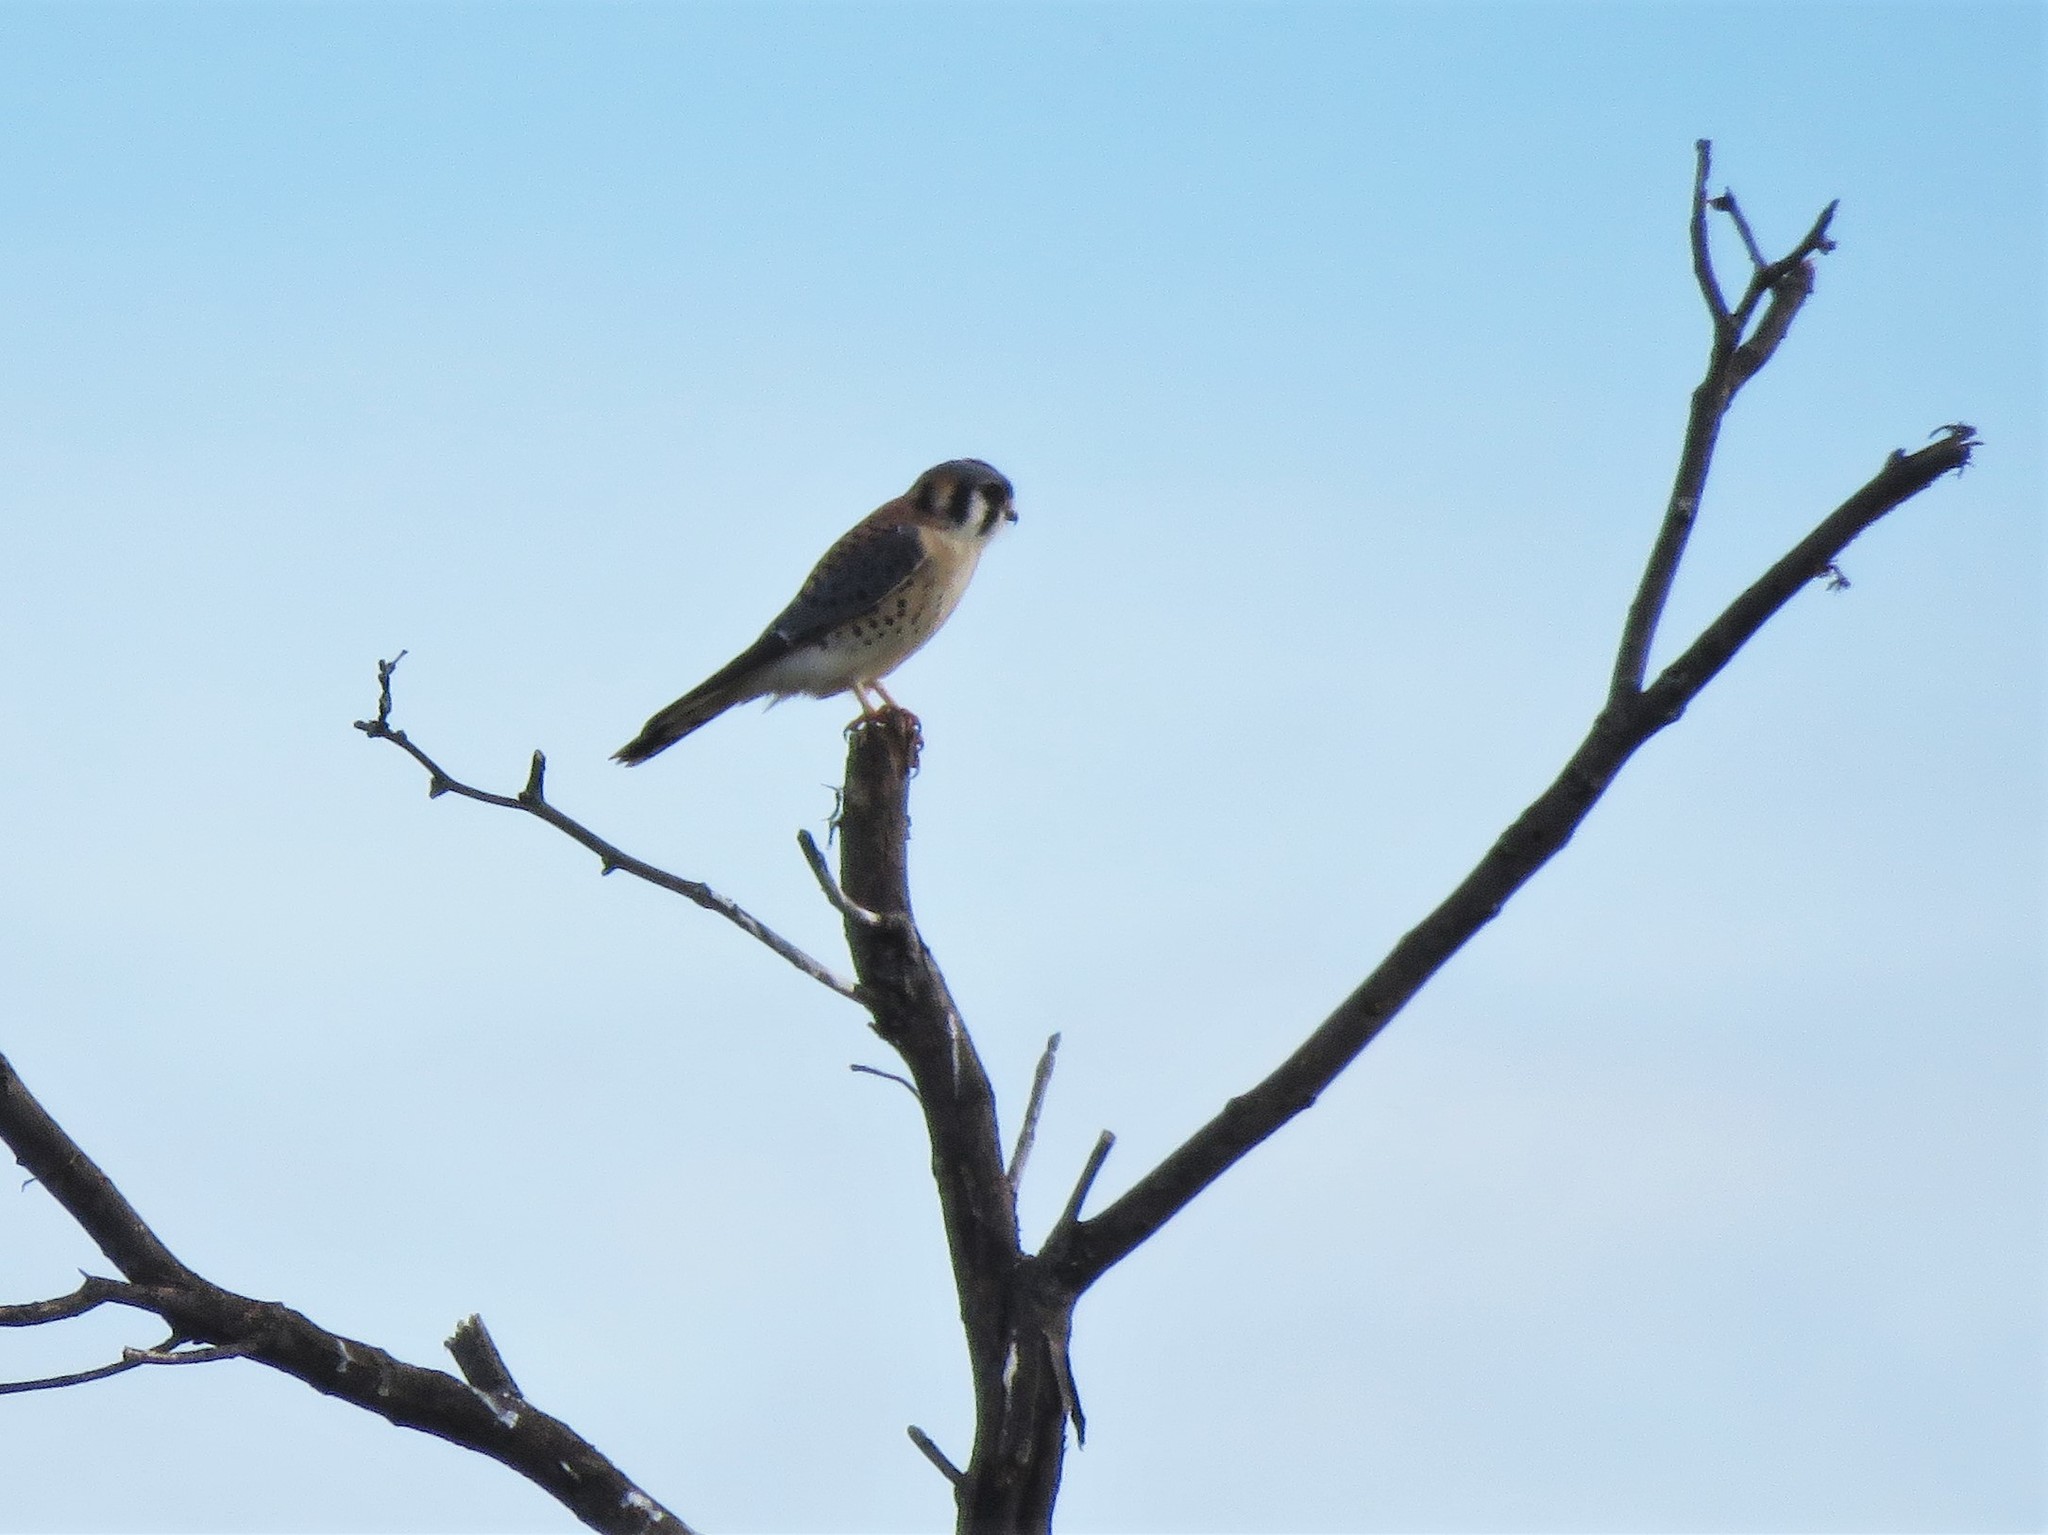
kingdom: Animalia
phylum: Chordata
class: Aves
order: Falconiformes
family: Falconidae
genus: Falco
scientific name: Falco sparverius
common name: American kestrel
